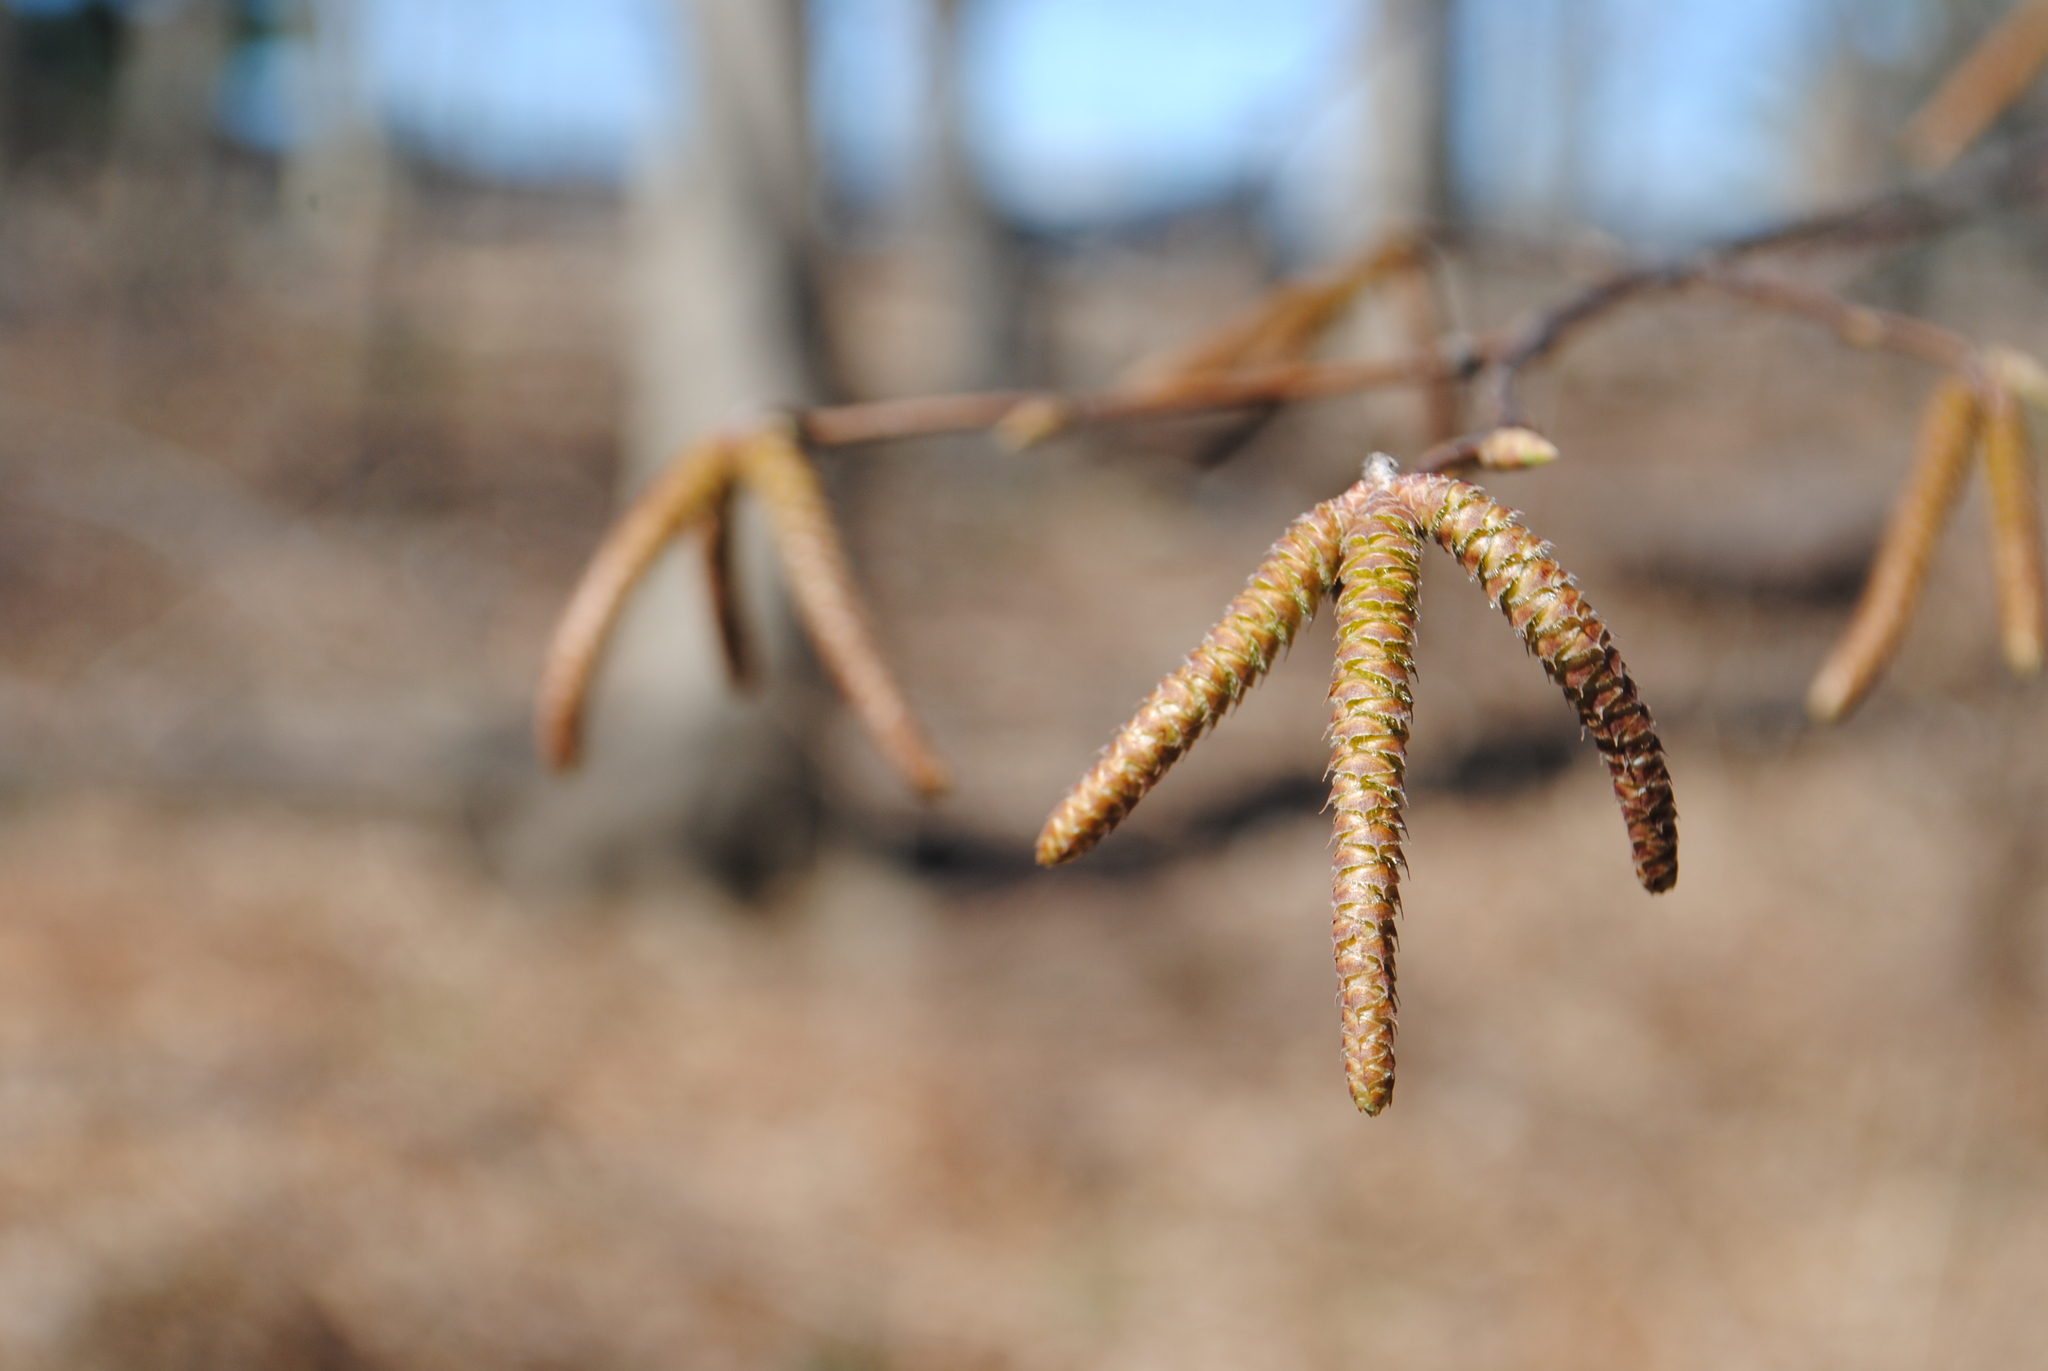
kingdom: Plantae
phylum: Tracheophyta
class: Magnoliopsida
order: Fagales
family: Betulaceae
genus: Ostrya
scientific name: Ostrya virginiana
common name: Ironwood
